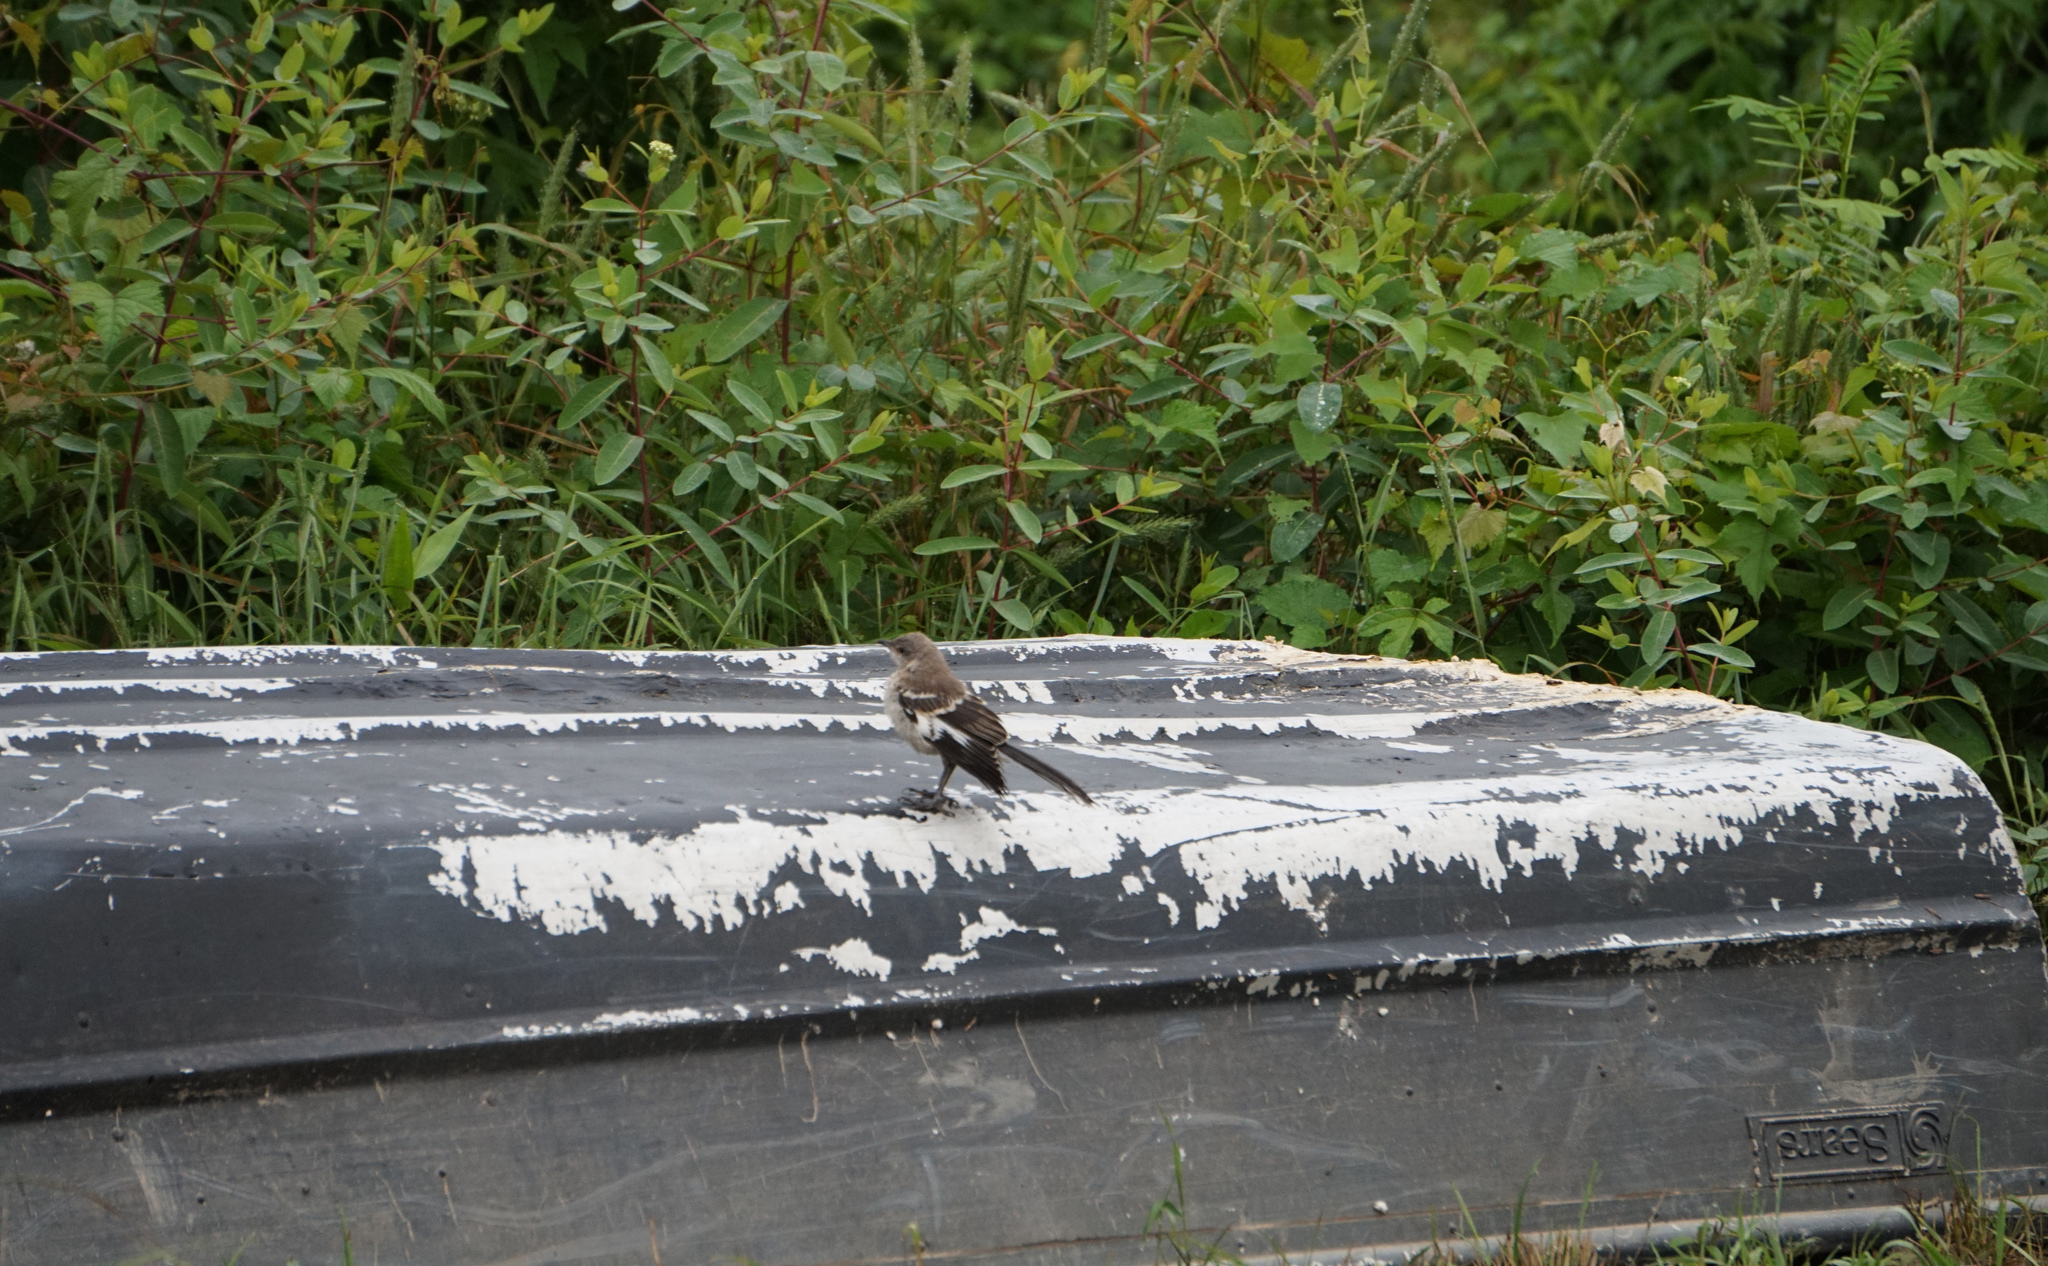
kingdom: Animalia
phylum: Chordata
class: Aves
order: Passeriformes
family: Mimidae
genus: Mimus
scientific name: Mimus polyglottos
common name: Northern mockingbird
